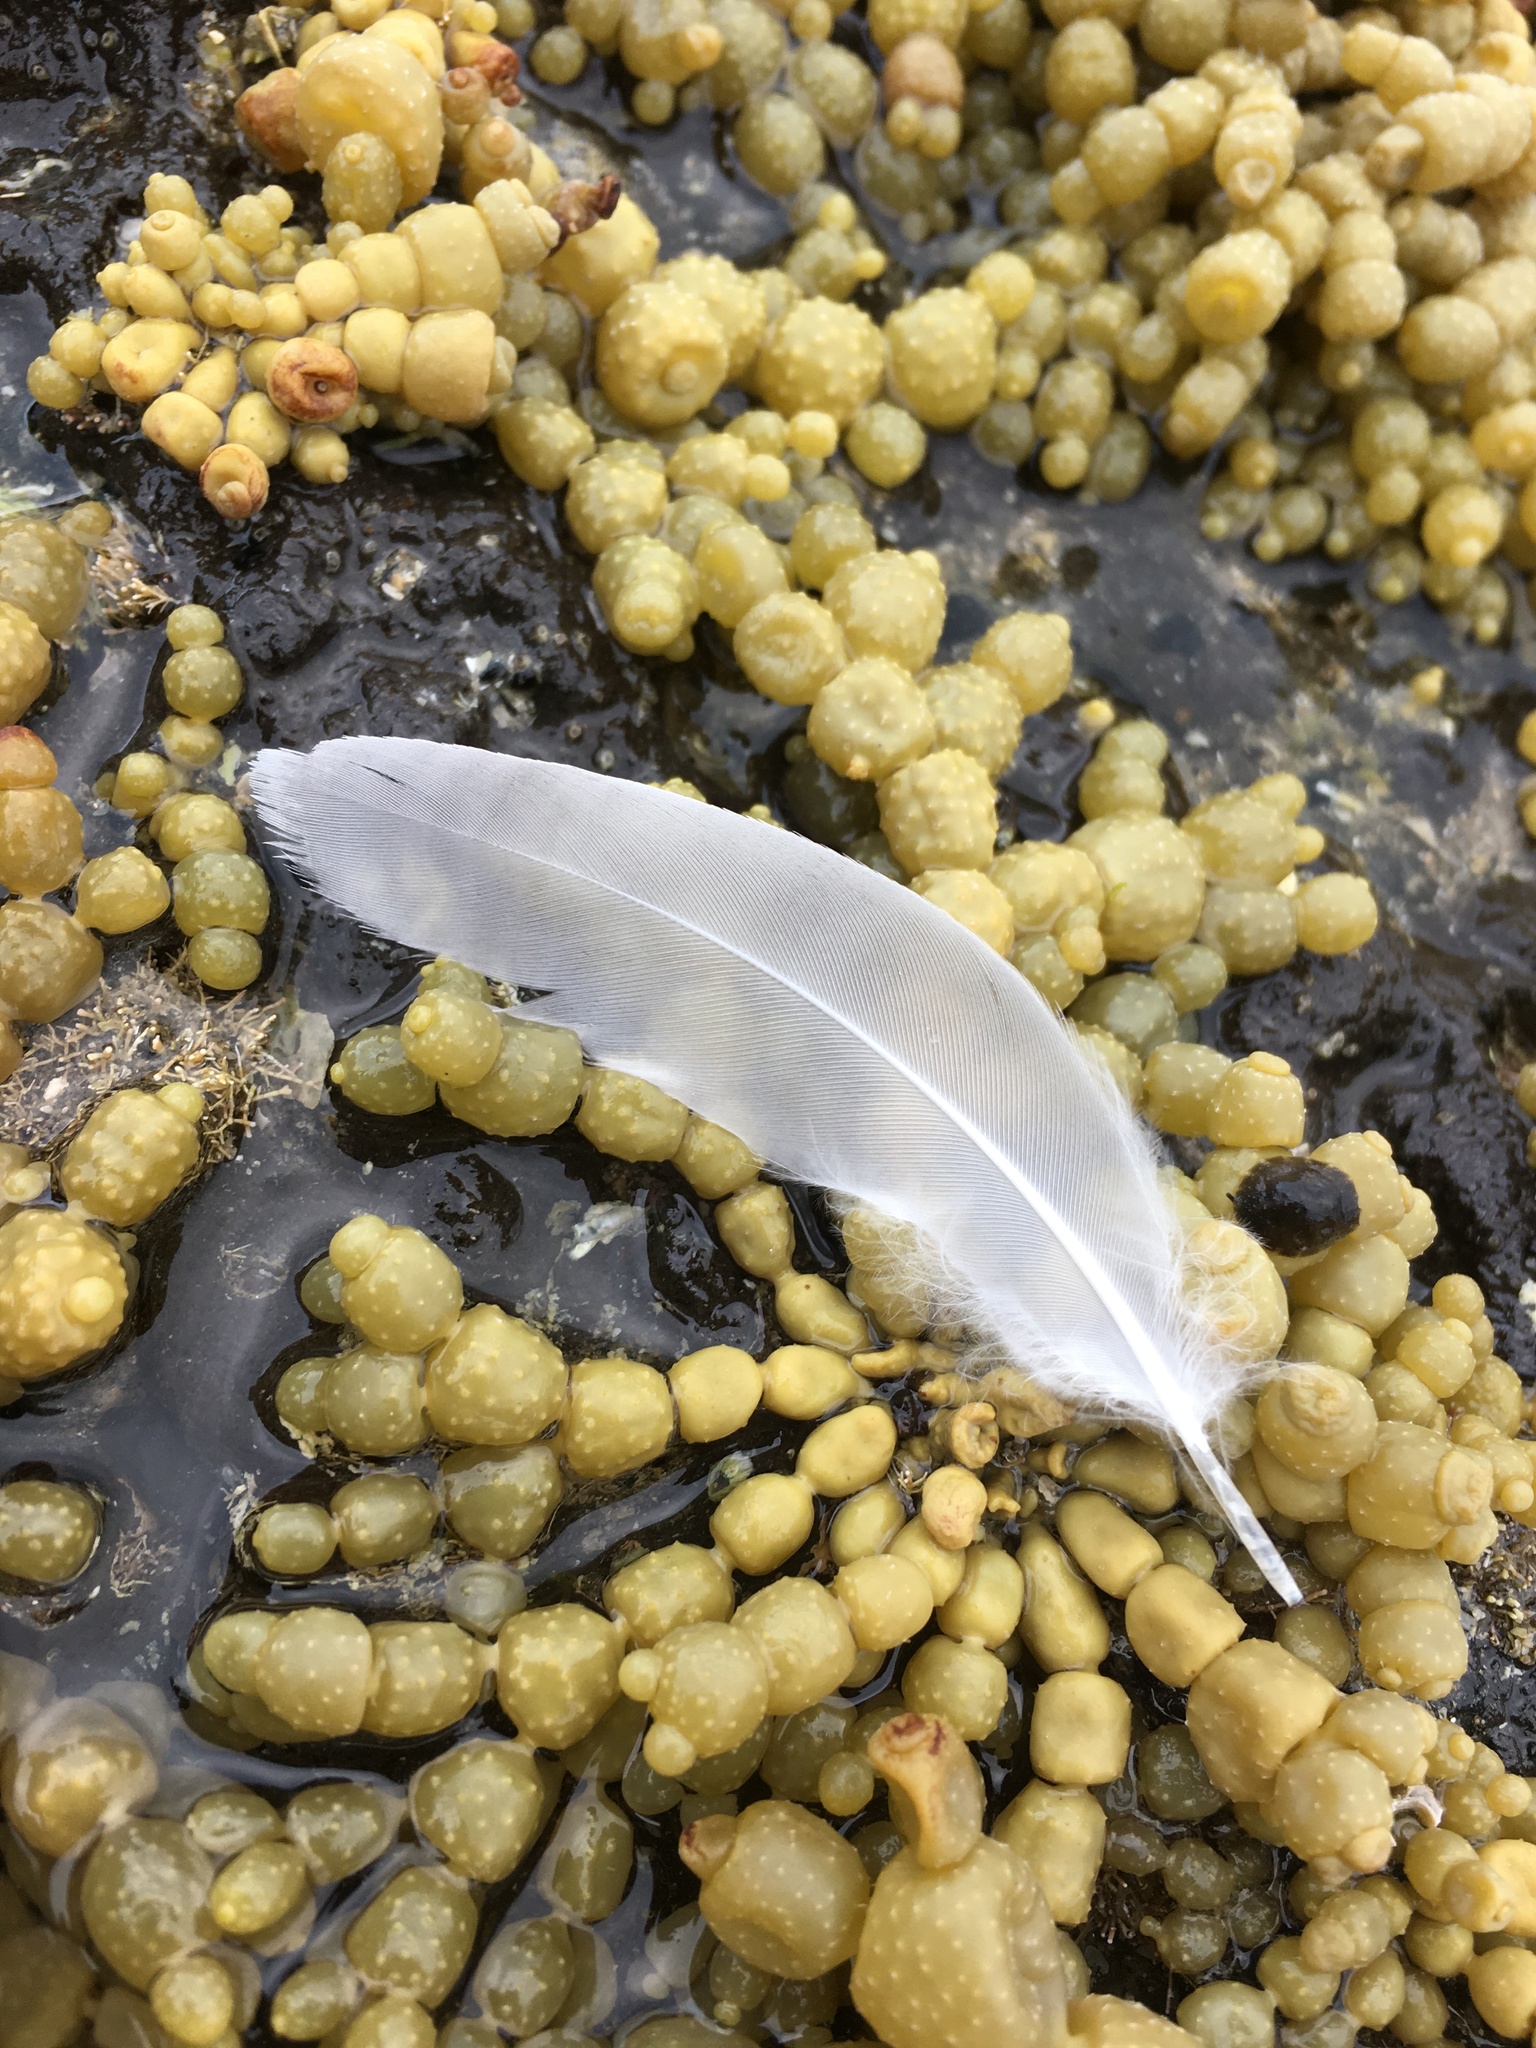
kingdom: Animalia
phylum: Chordata
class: Aves
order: Charadriiformes
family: Laridae
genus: Chroicocephalus
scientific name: Chroicocephalus novaehollandiae
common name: Silver gull
